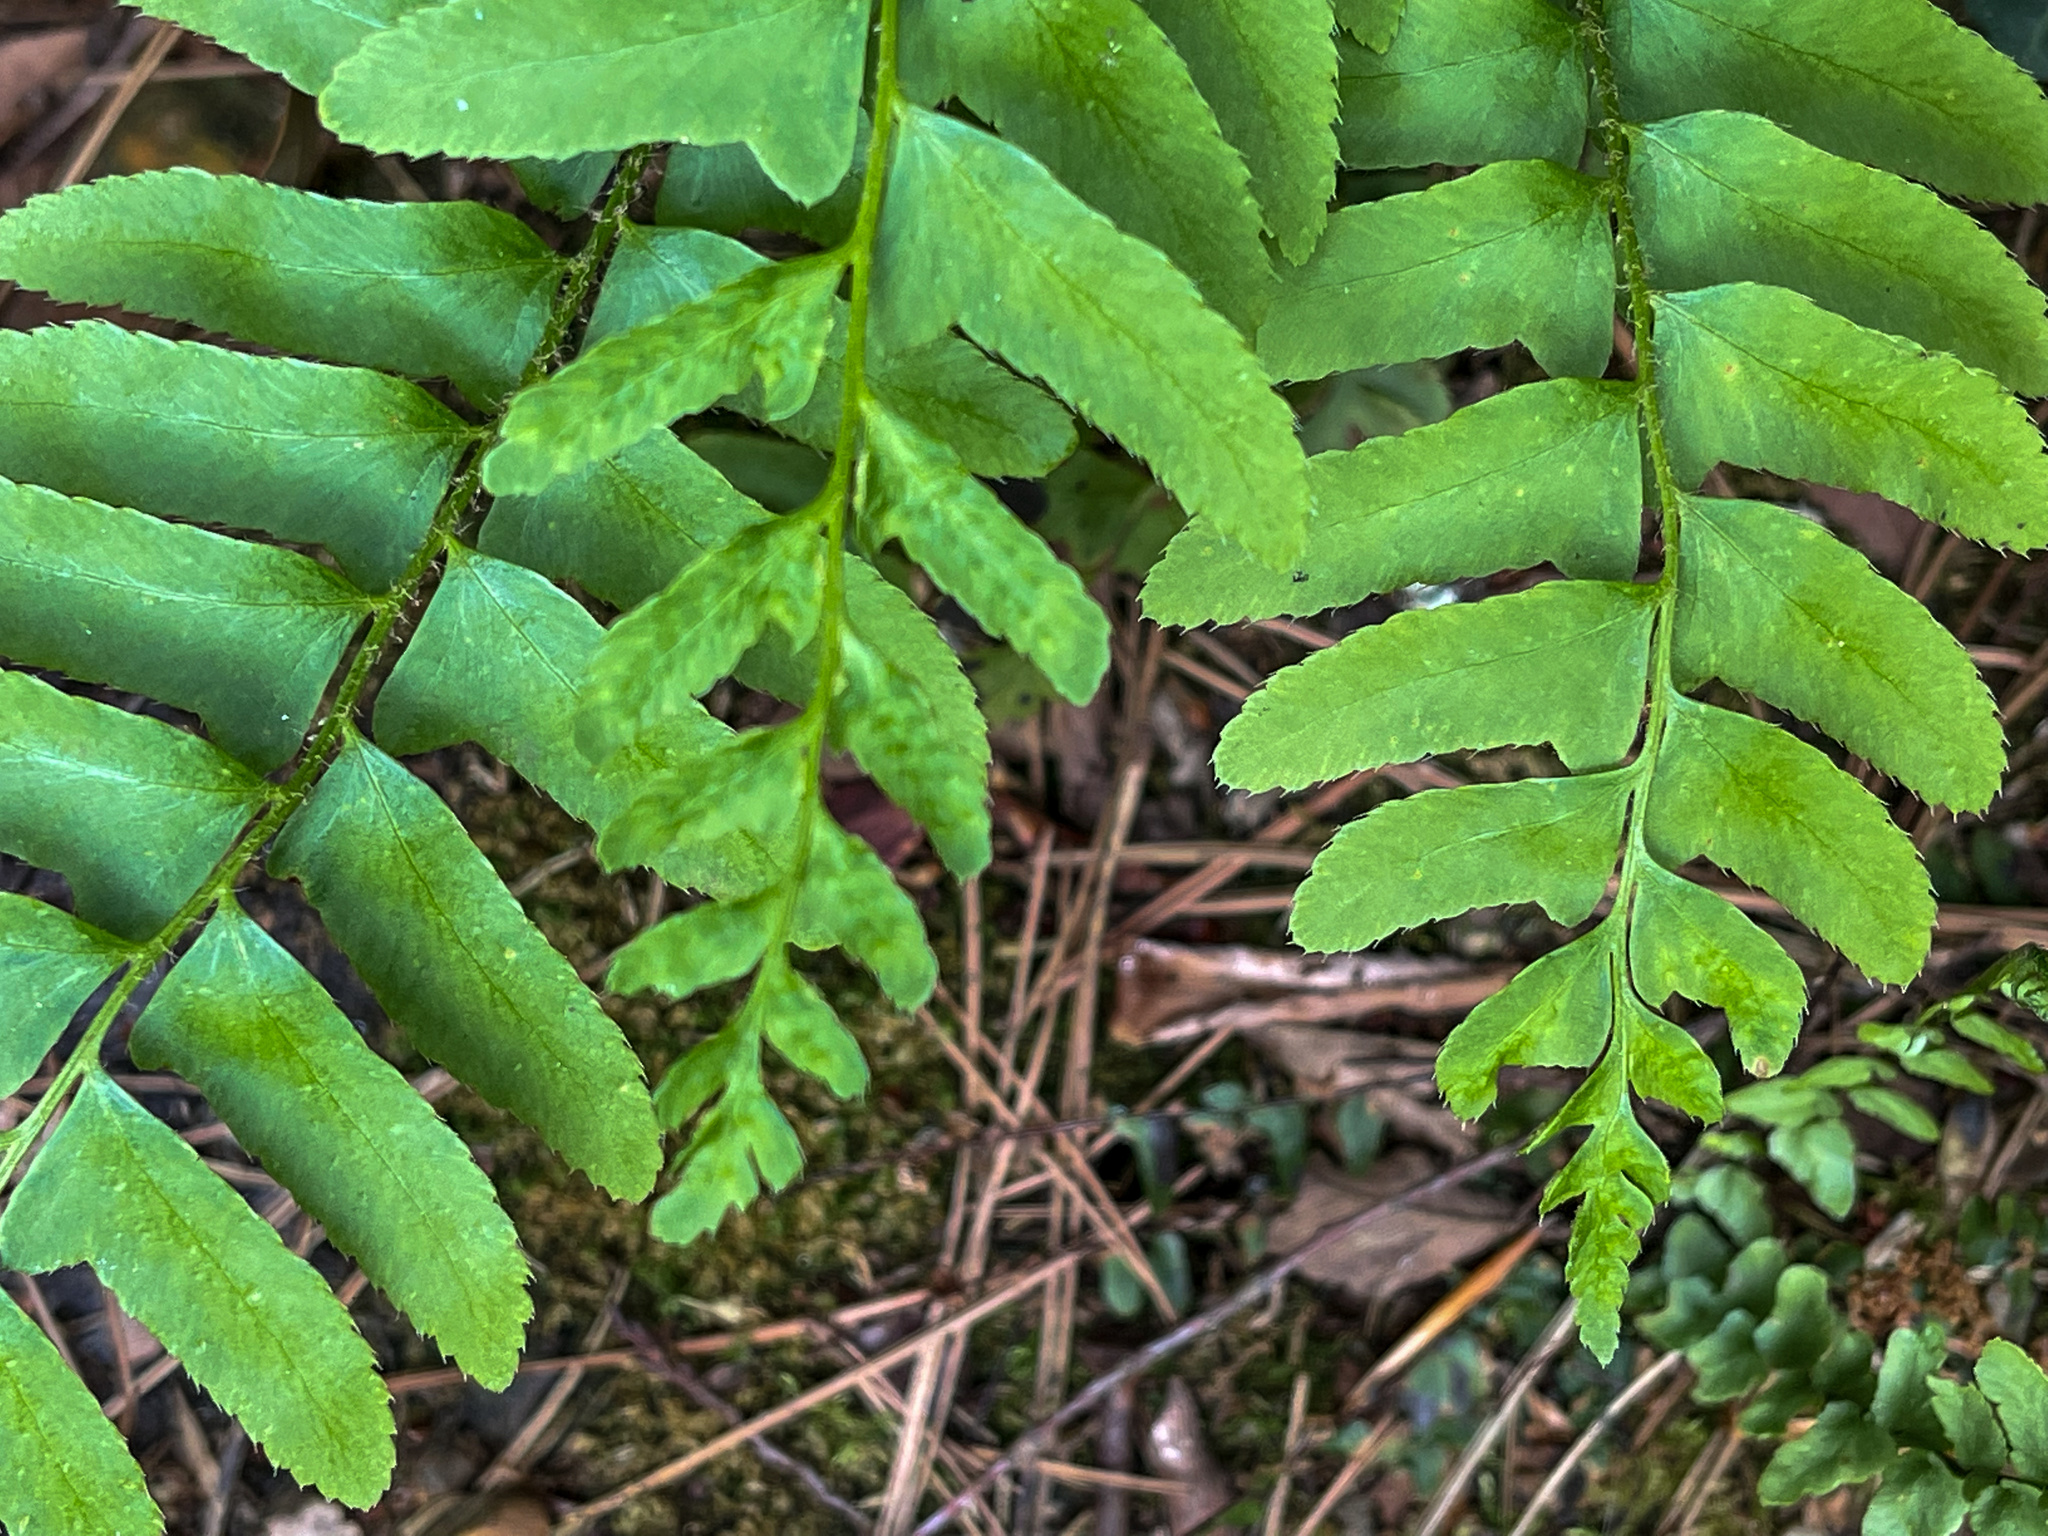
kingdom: Plantae
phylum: Tracheophyta
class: Polypodiopsida
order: Polypodiales
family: Dryopteridaceae
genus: Polystichum
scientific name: Polystichum acrostichoides
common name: Christmas fern
